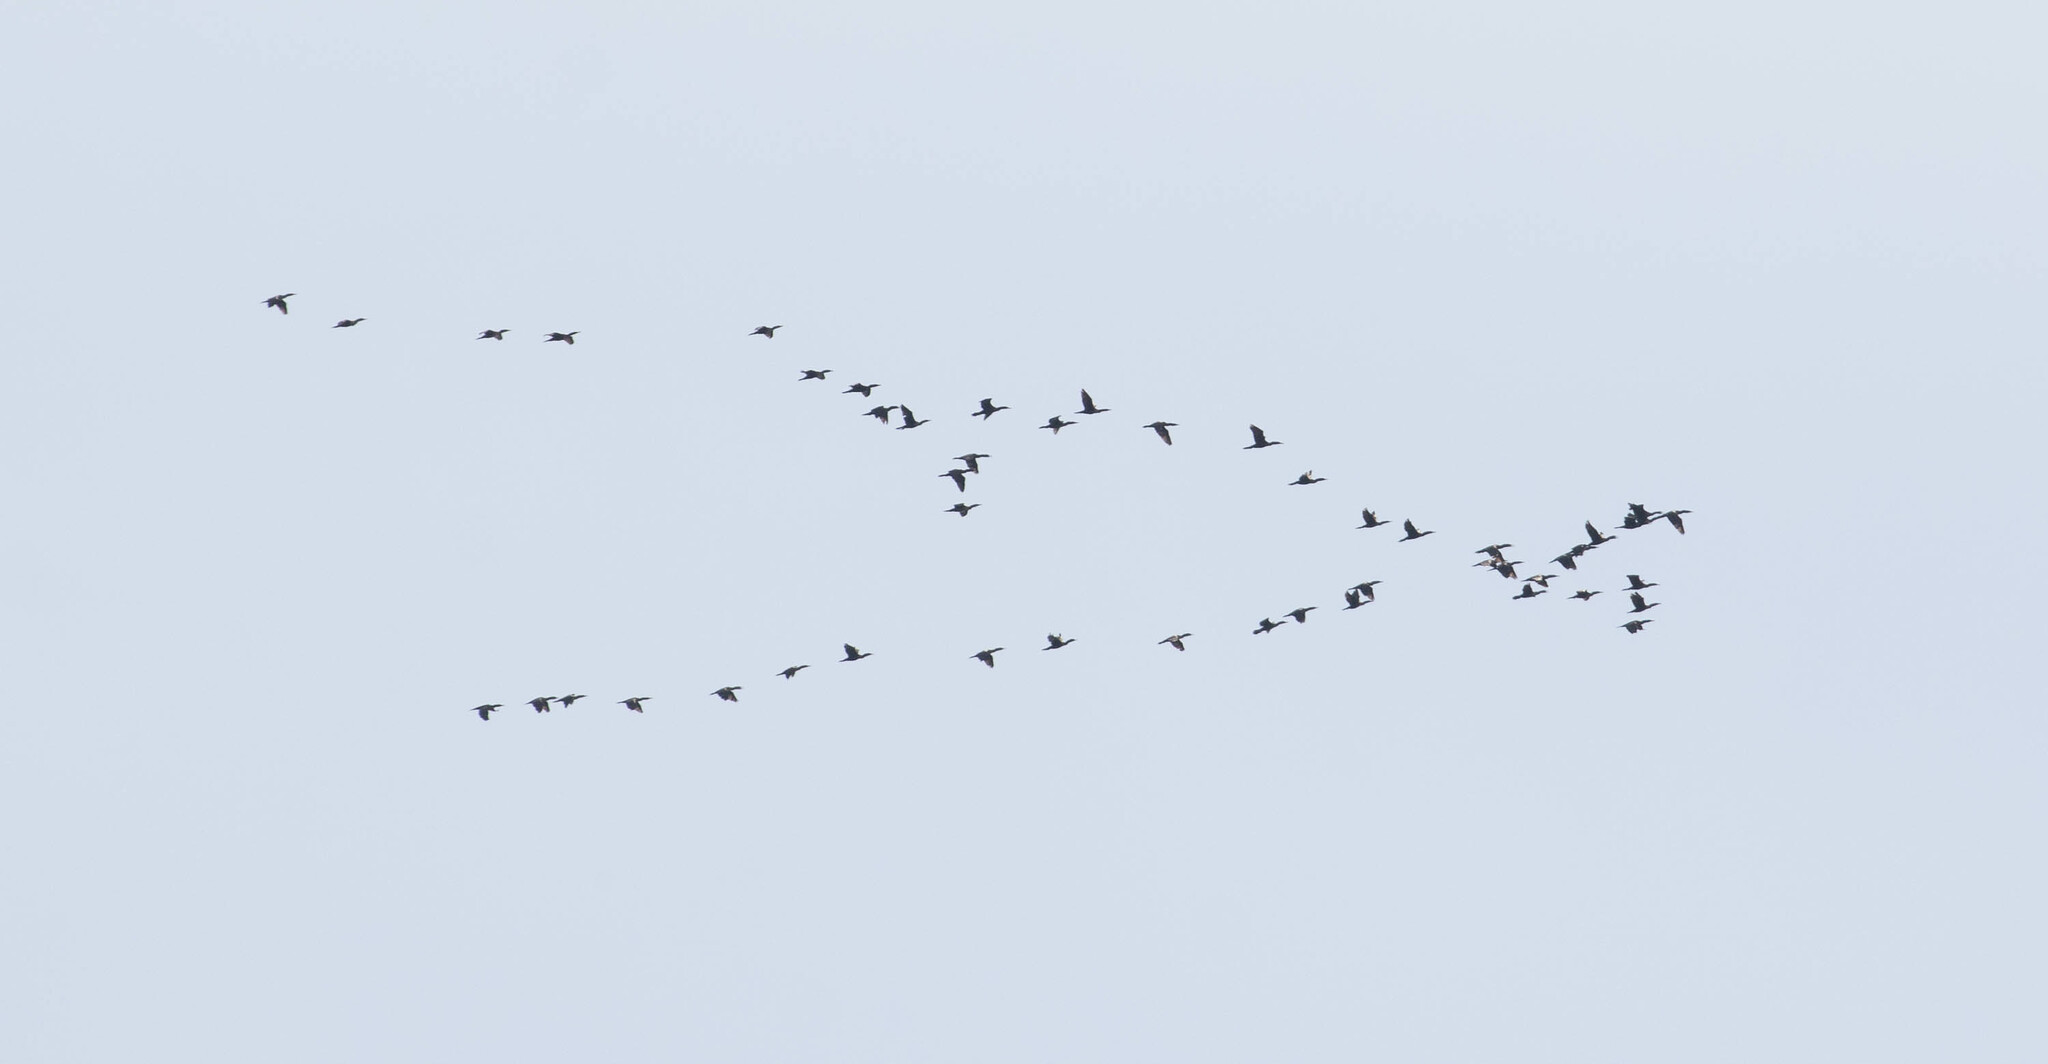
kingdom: Animalia
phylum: Chordata
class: Aves
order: Suliformes
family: Phalacrocoracidae
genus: Phalacrocorax
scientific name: Phalacrocorax auritus
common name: Double-crested cormorant
